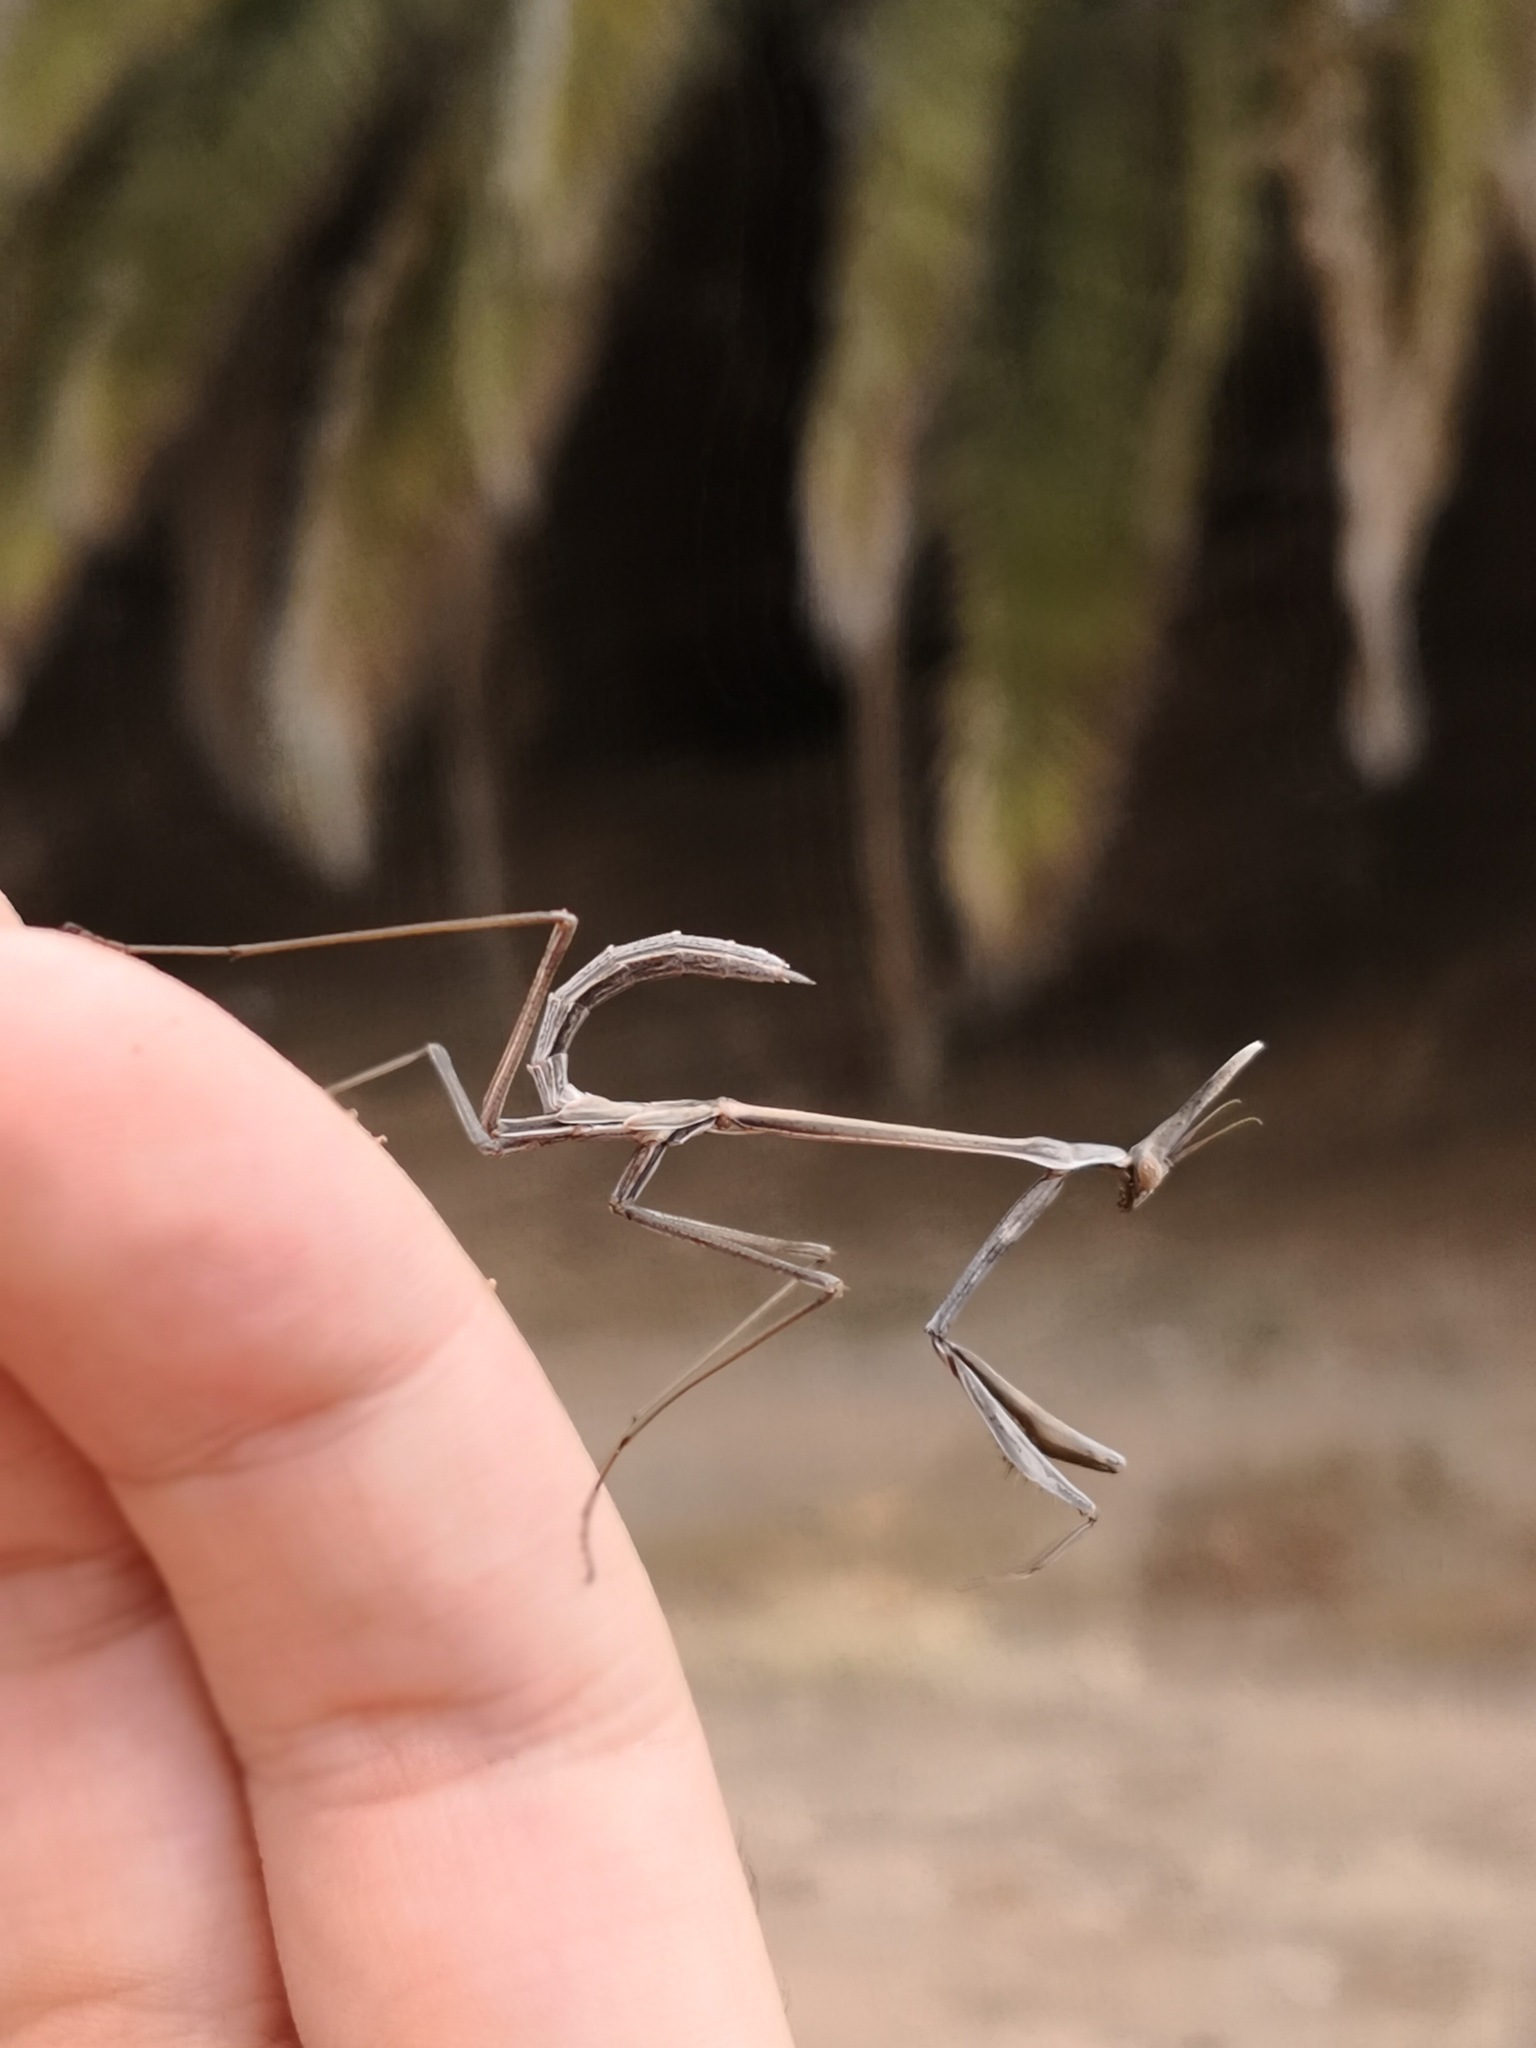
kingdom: Animalia
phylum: Arthropoda
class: Insecta
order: Mantodea
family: Empusidae
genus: Hypsicorypha
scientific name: Hypsicorypha gracilis
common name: Sublime conehead mantis
